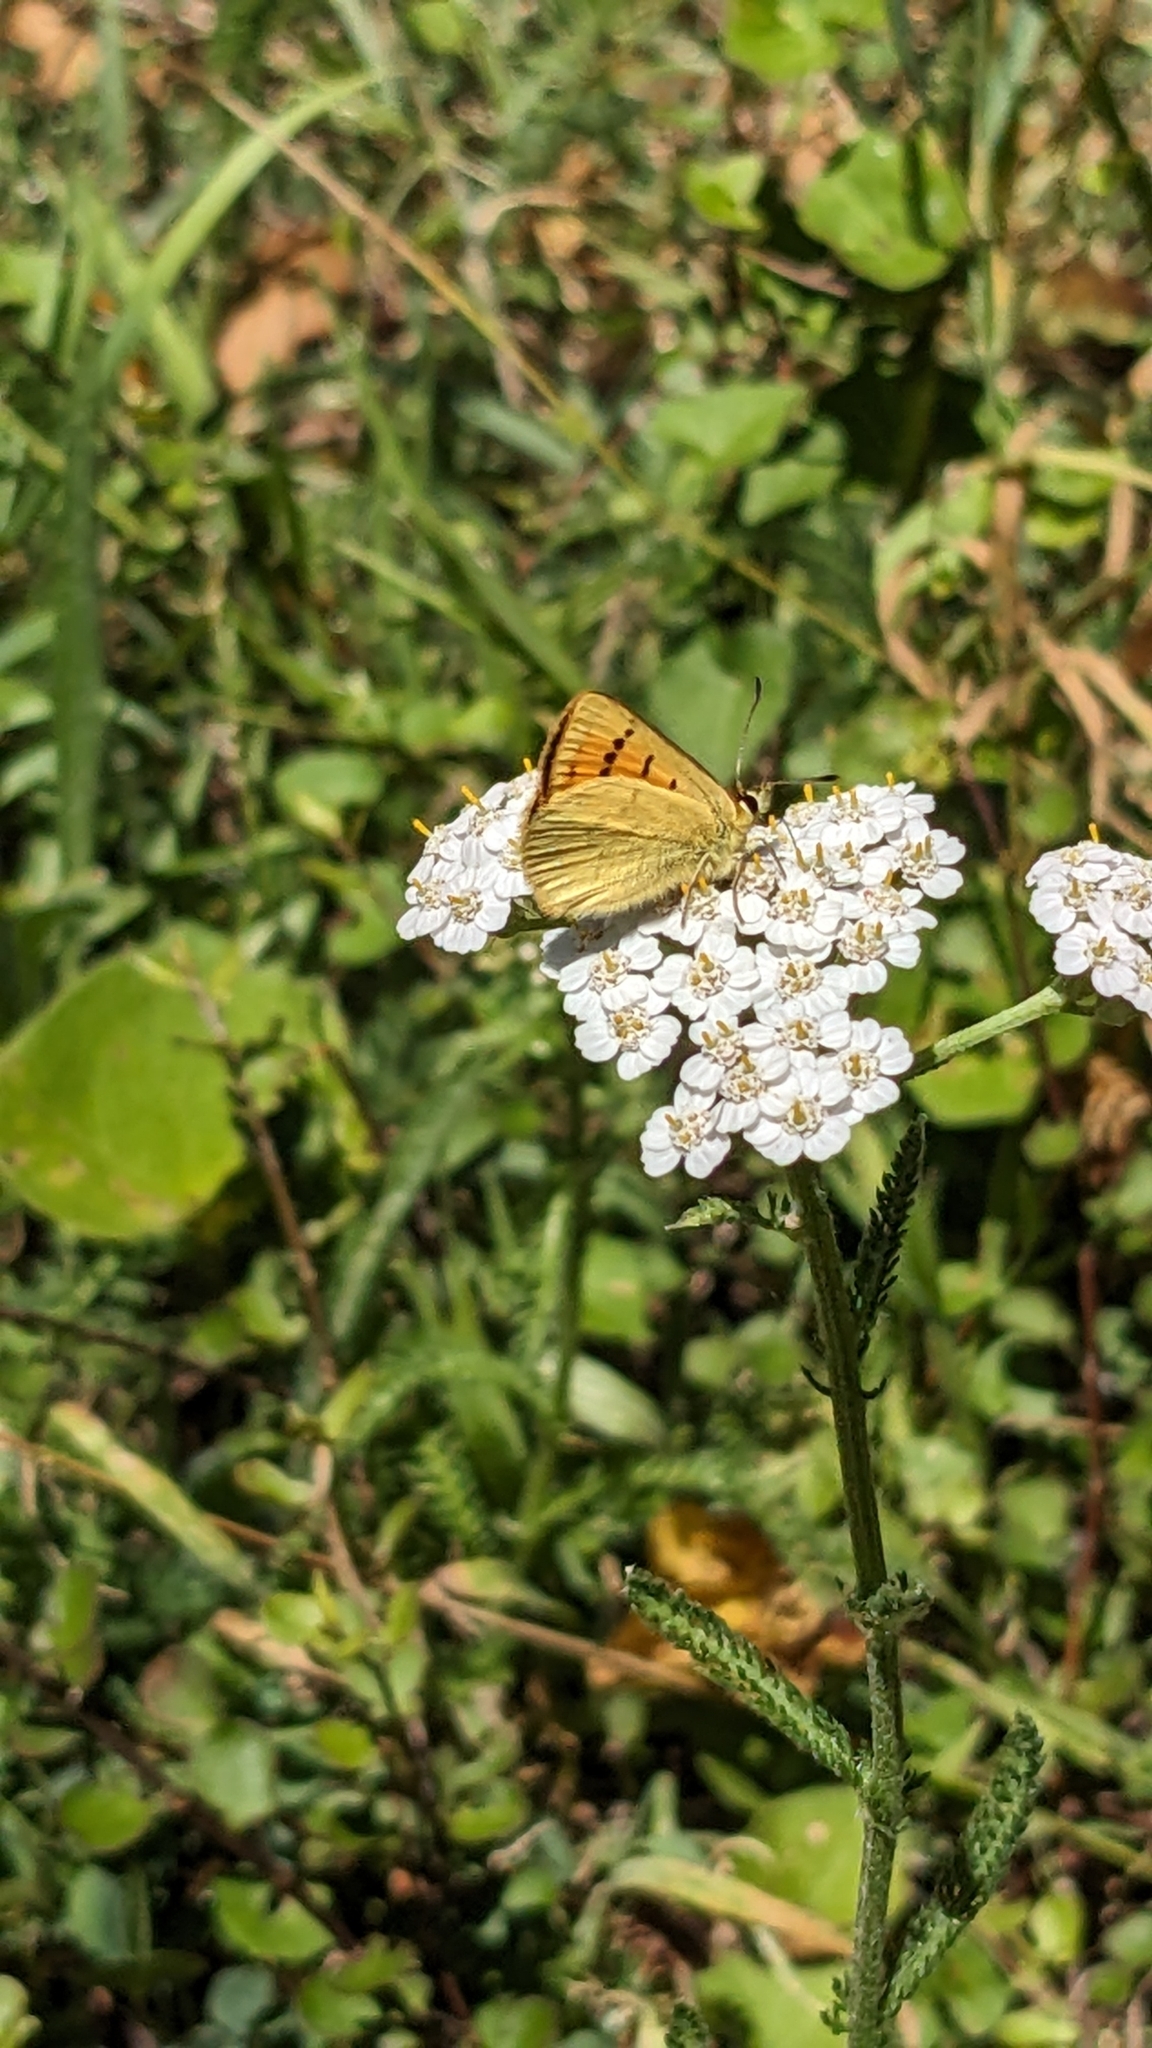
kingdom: Animalia
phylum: Arthropoda
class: Insecta
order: Lepidoptera
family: Lycaenidae
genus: Lycaena
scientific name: Lycaena salustius
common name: North island coastal copper
